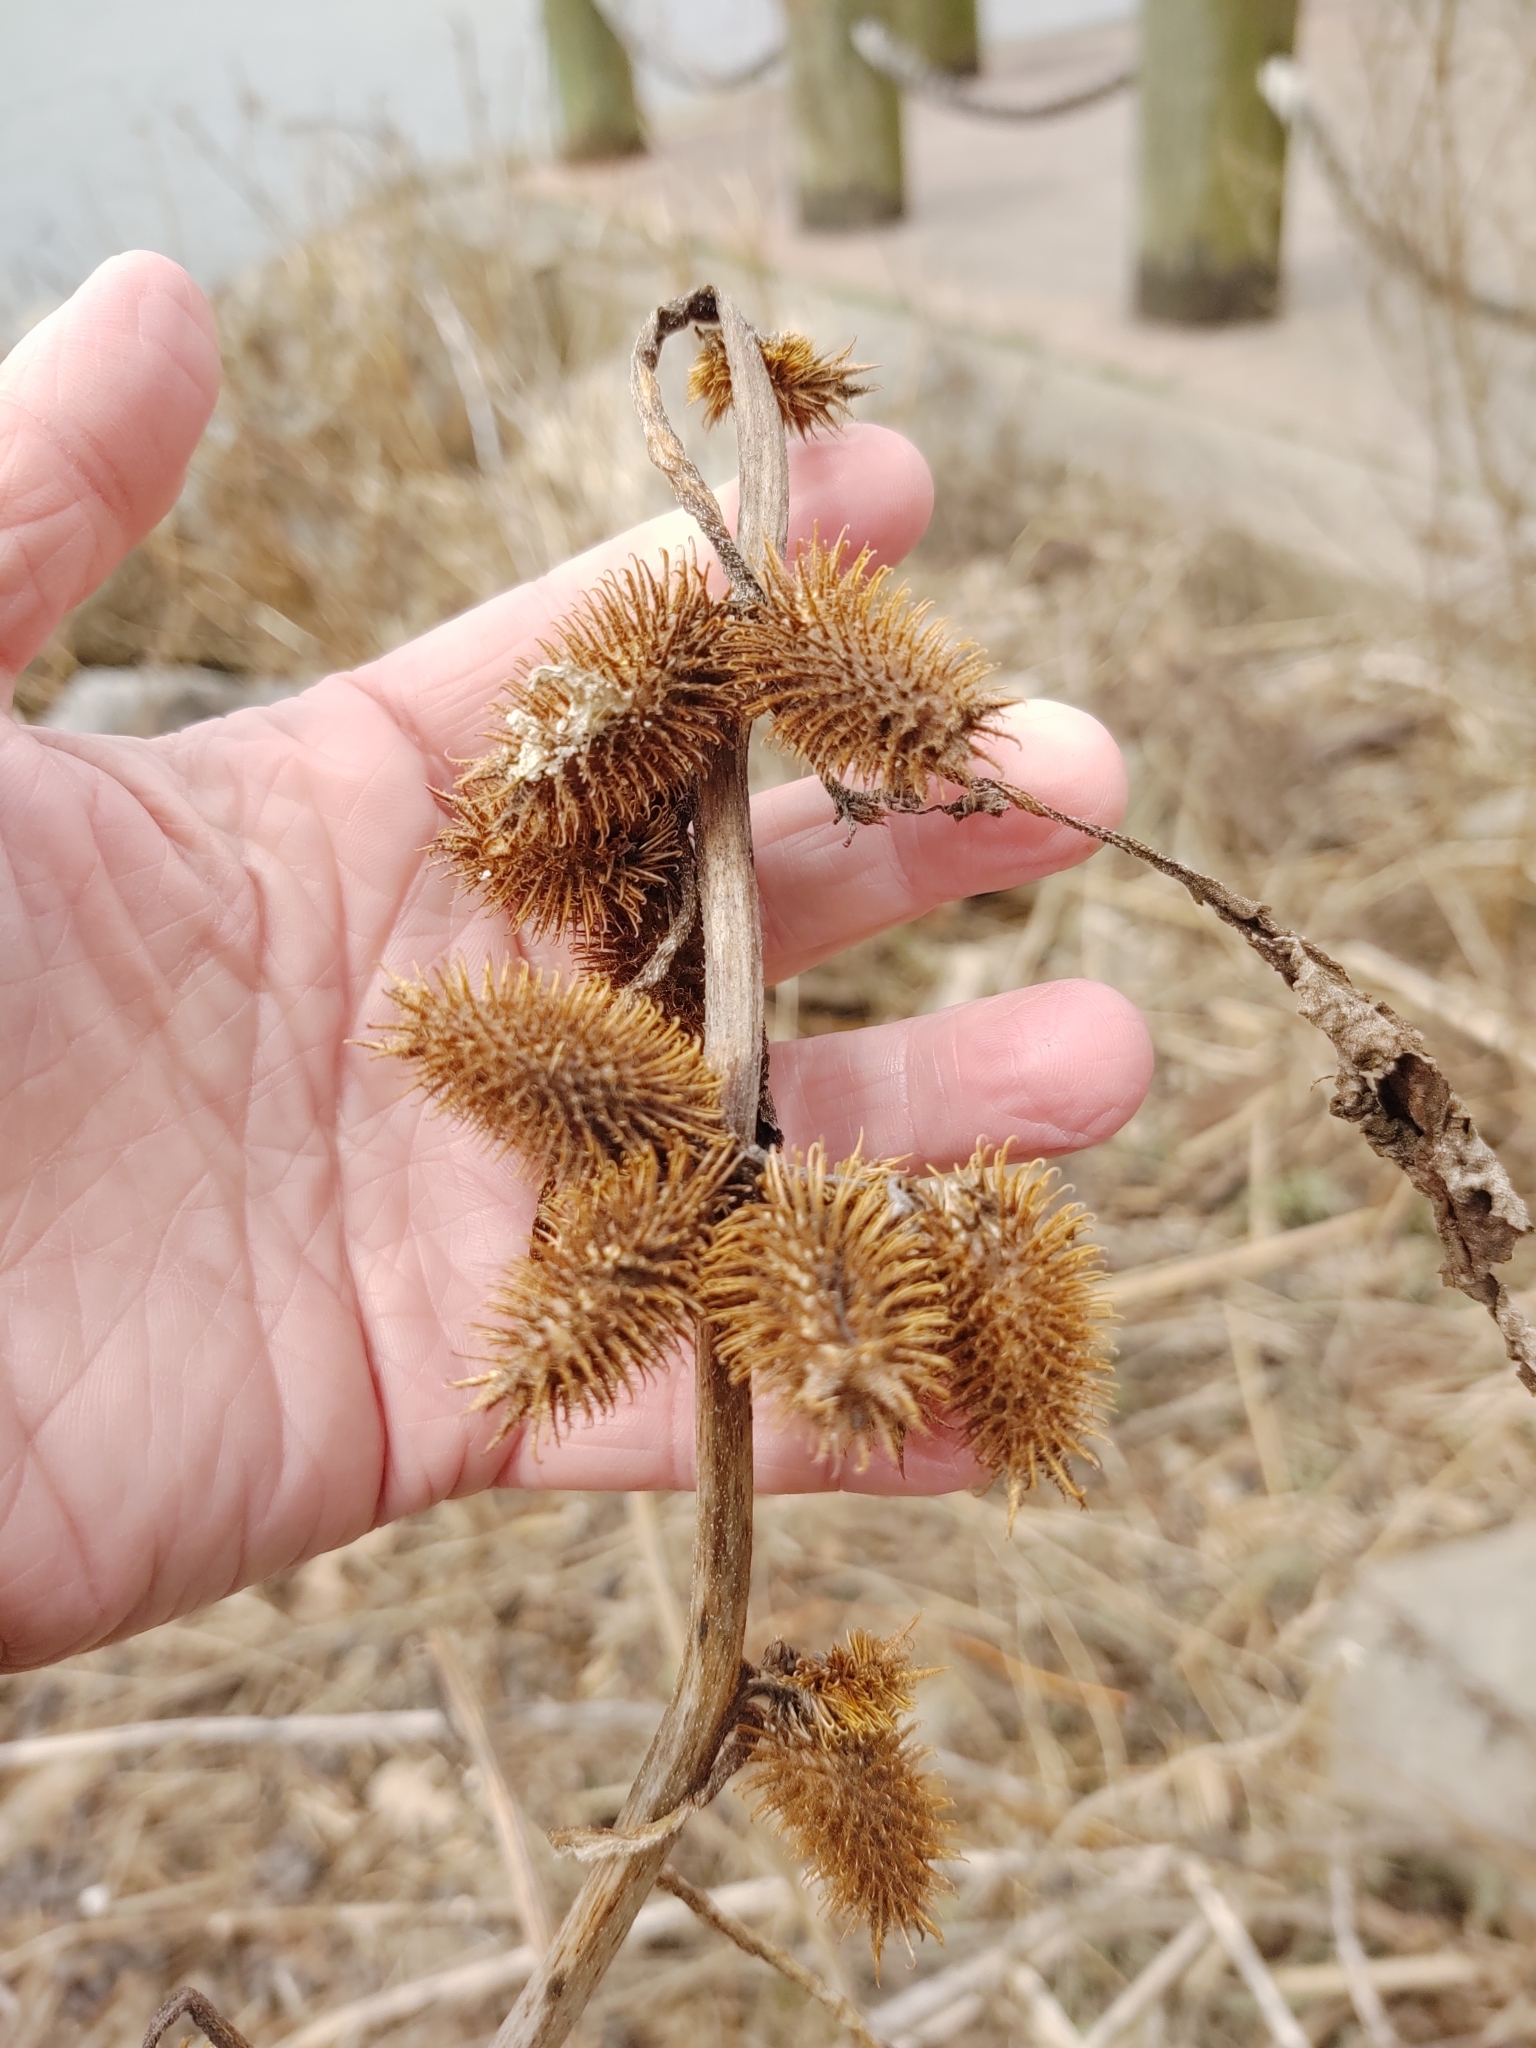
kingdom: Plantae
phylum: Tracheophyta
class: Magnoliopsida
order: Asterales
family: Asteraceae
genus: Xanthium
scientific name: Xanthium strumarium
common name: Rough cocklebur
